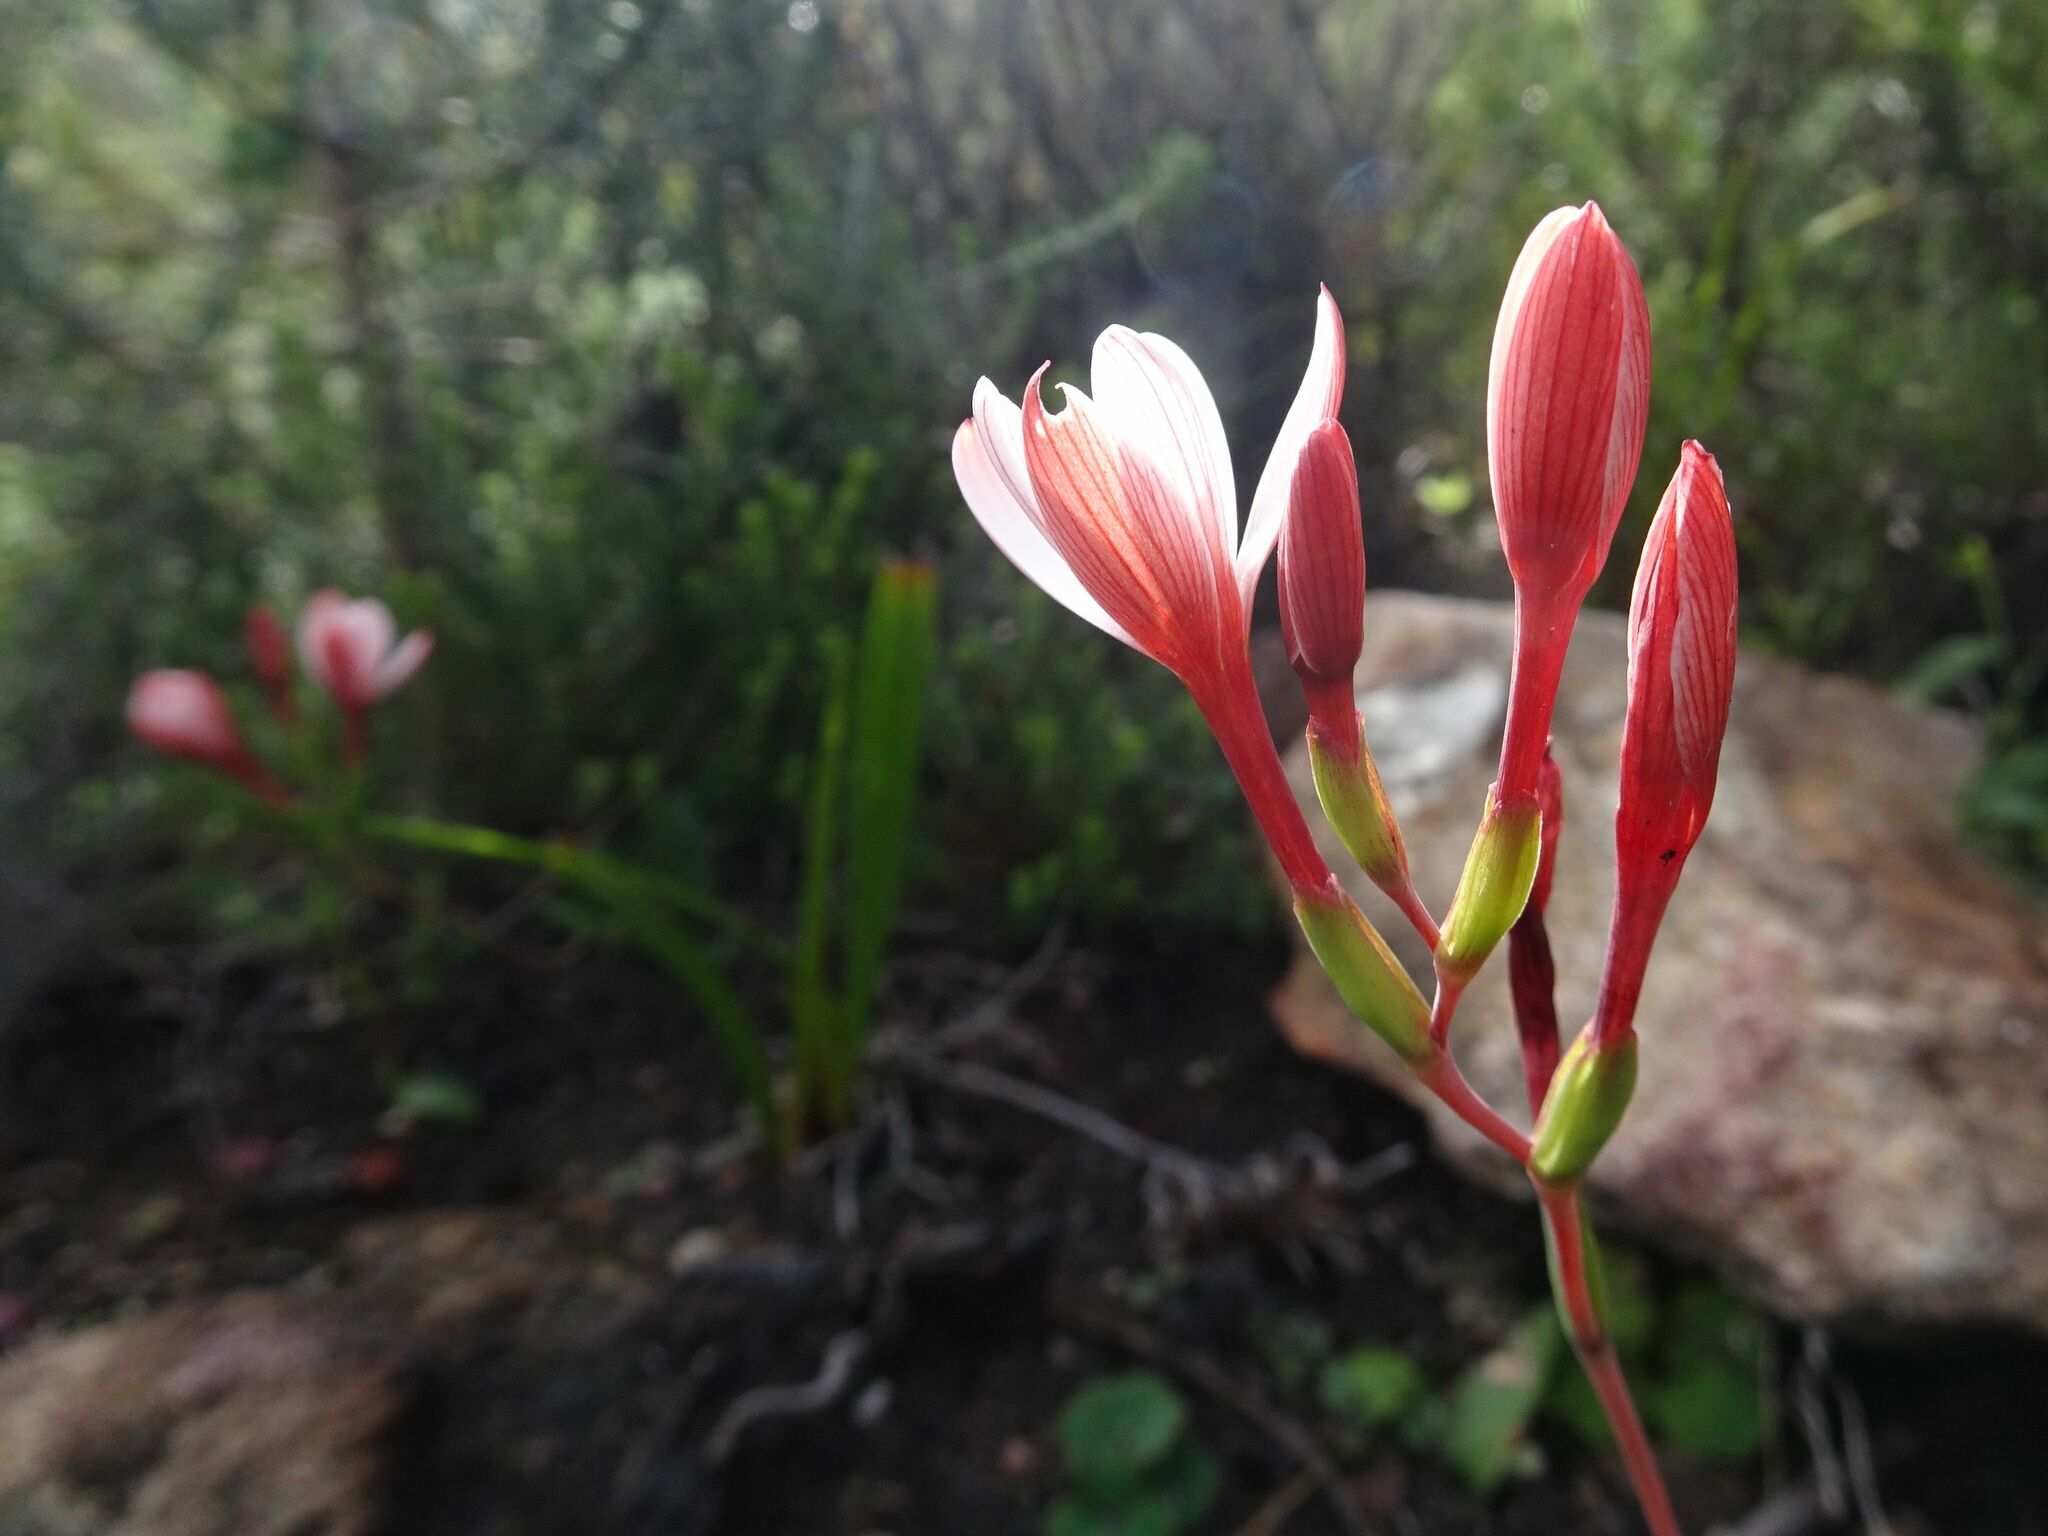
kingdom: Plantae
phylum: Tracheophyta
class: Liliopsida
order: Asparagales
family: Iridaceae
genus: Geissorhiza
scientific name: Geissorhiza ovata
